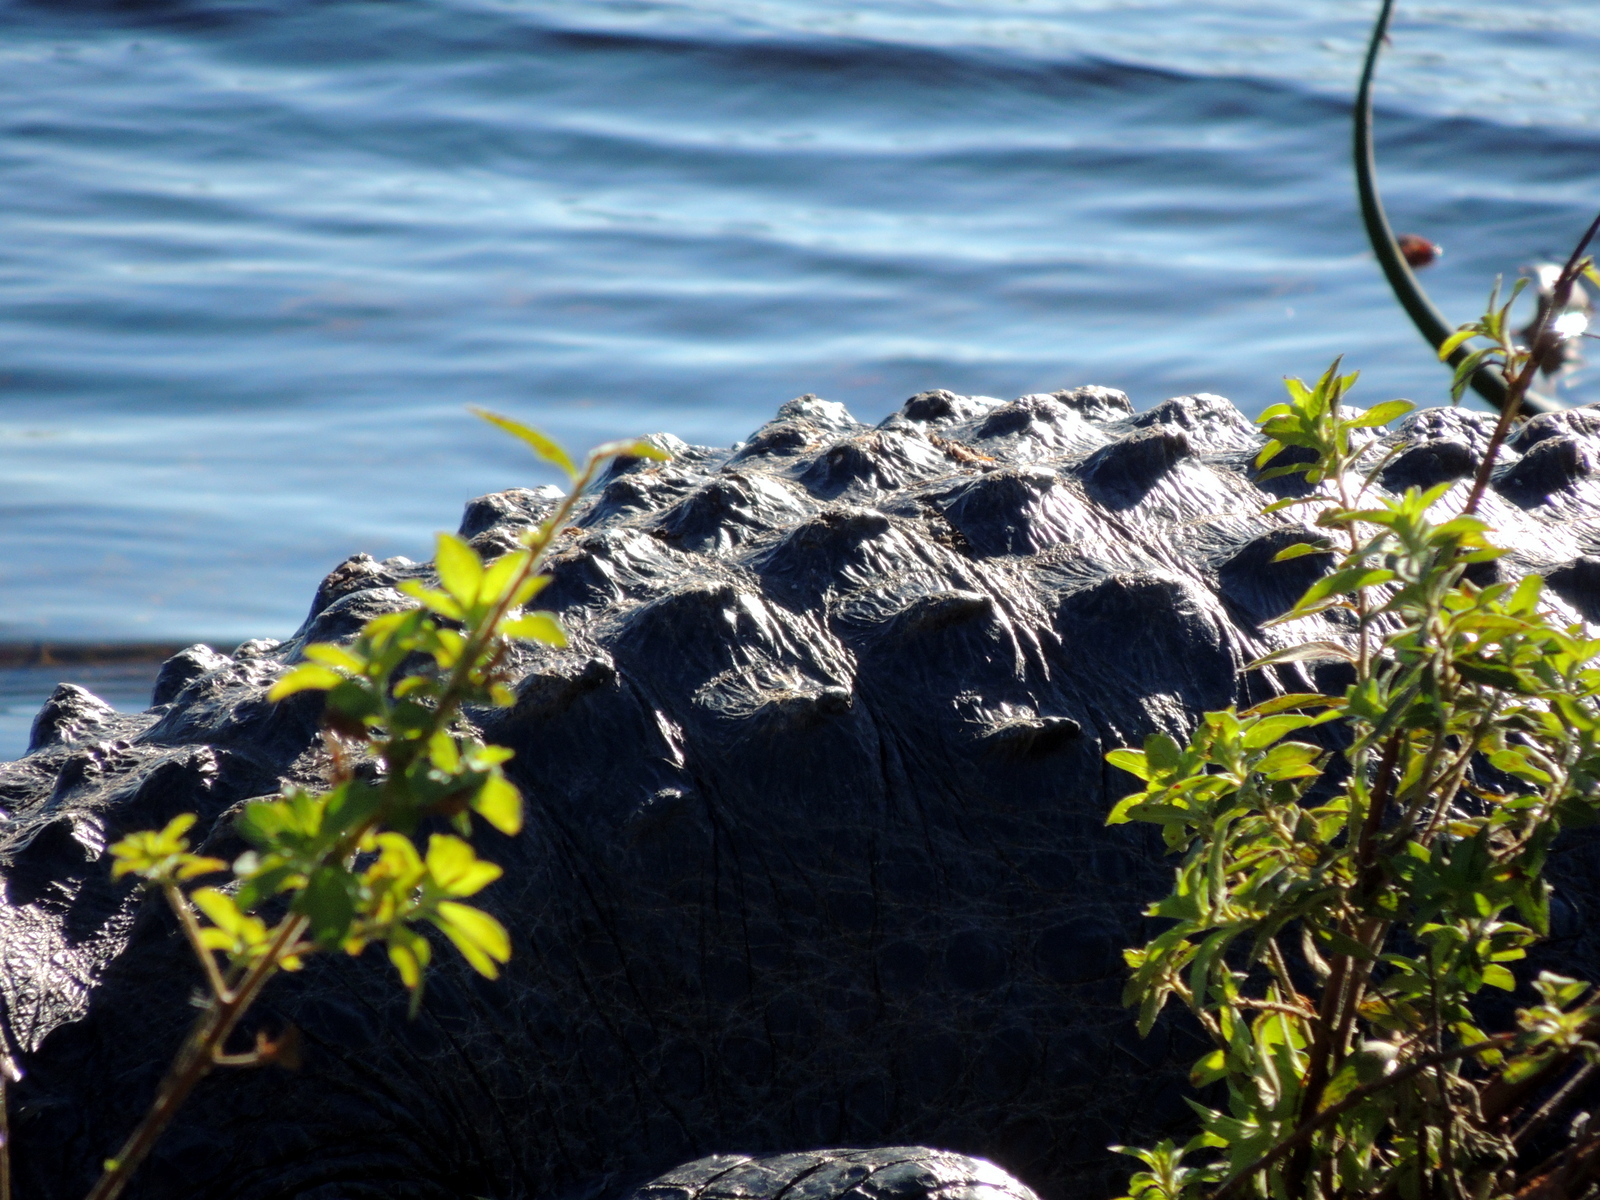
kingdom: Animalia
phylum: Chordata
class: Crocodylia
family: Alligatoridae
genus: Alligator
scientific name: Alligator mississippiensis
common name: American alligator
